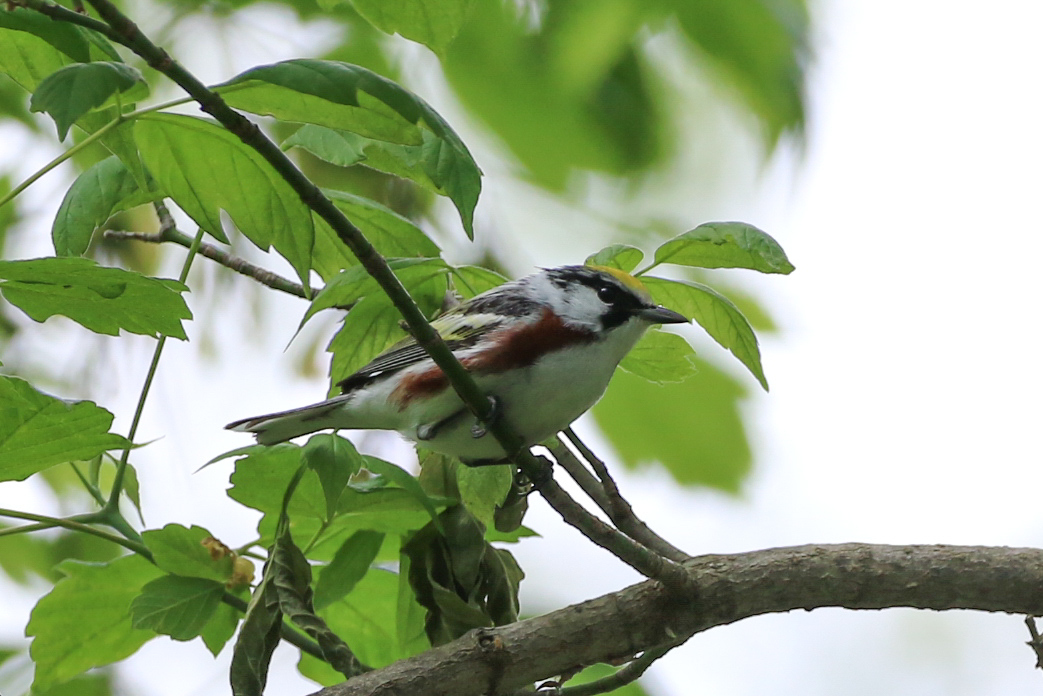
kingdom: Animalia
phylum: Chordata
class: Aves
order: Passeriformes
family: Parulidae
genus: Setophaga
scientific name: Setophaga pensylvanica
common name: Chestnut-sided warbler
